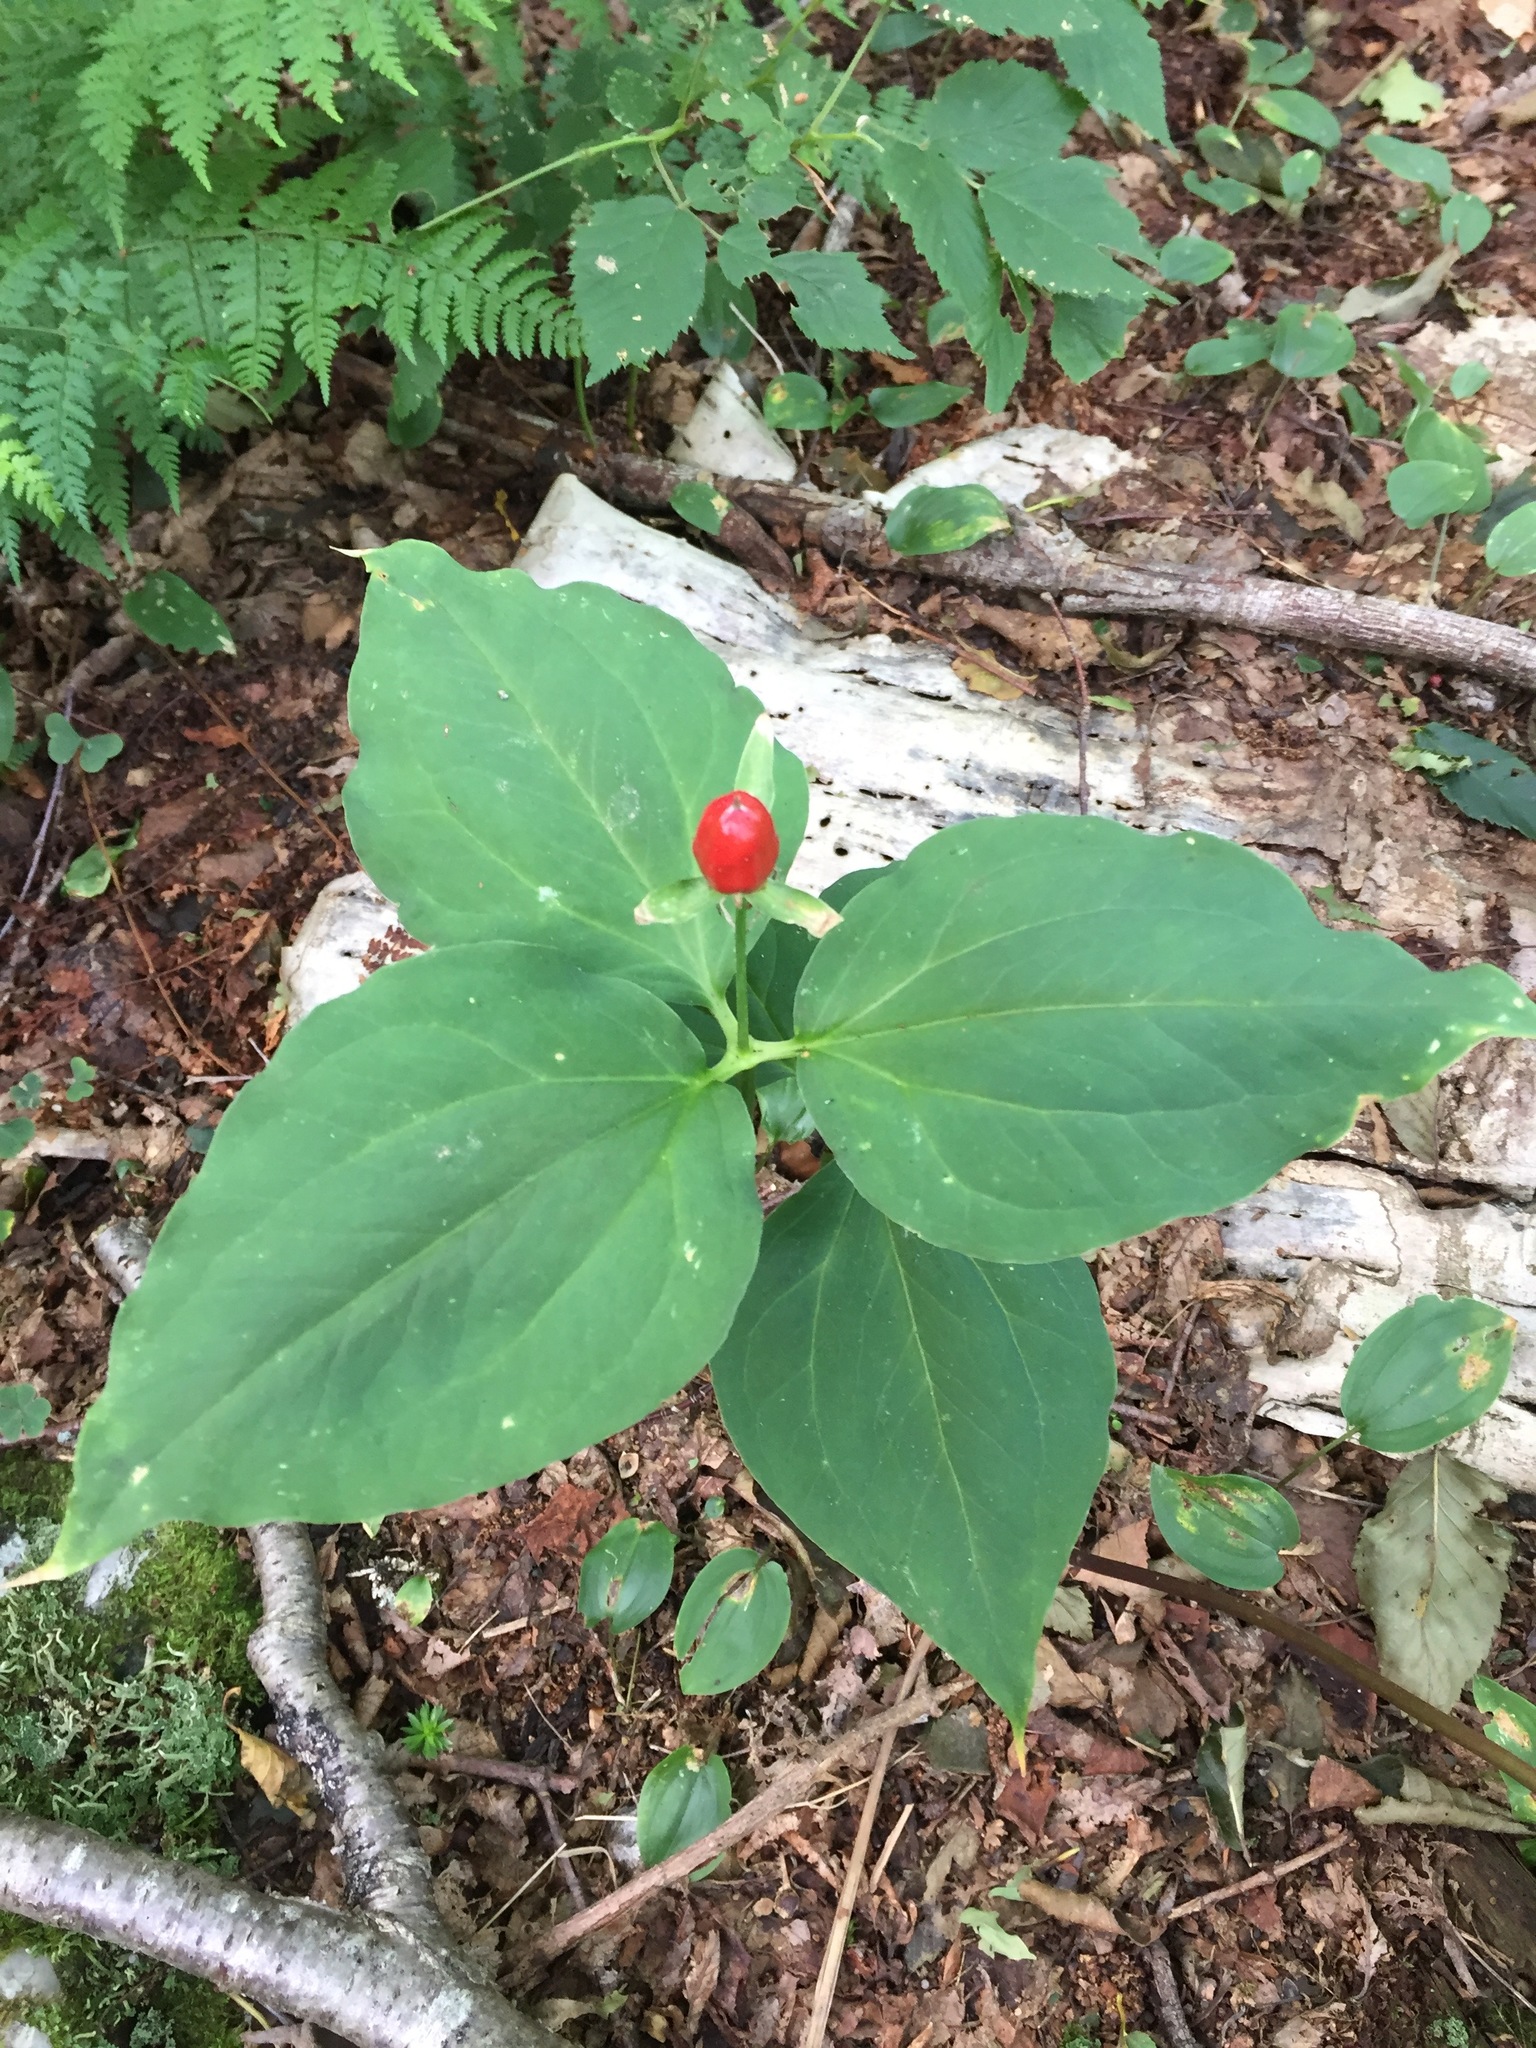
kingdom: Plantae
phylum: Tracheophyta
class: Liliopsida
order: Liliales
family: Melanthiaceae
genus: Trillium
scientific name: Trillium undulatum
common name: Paint trillium
